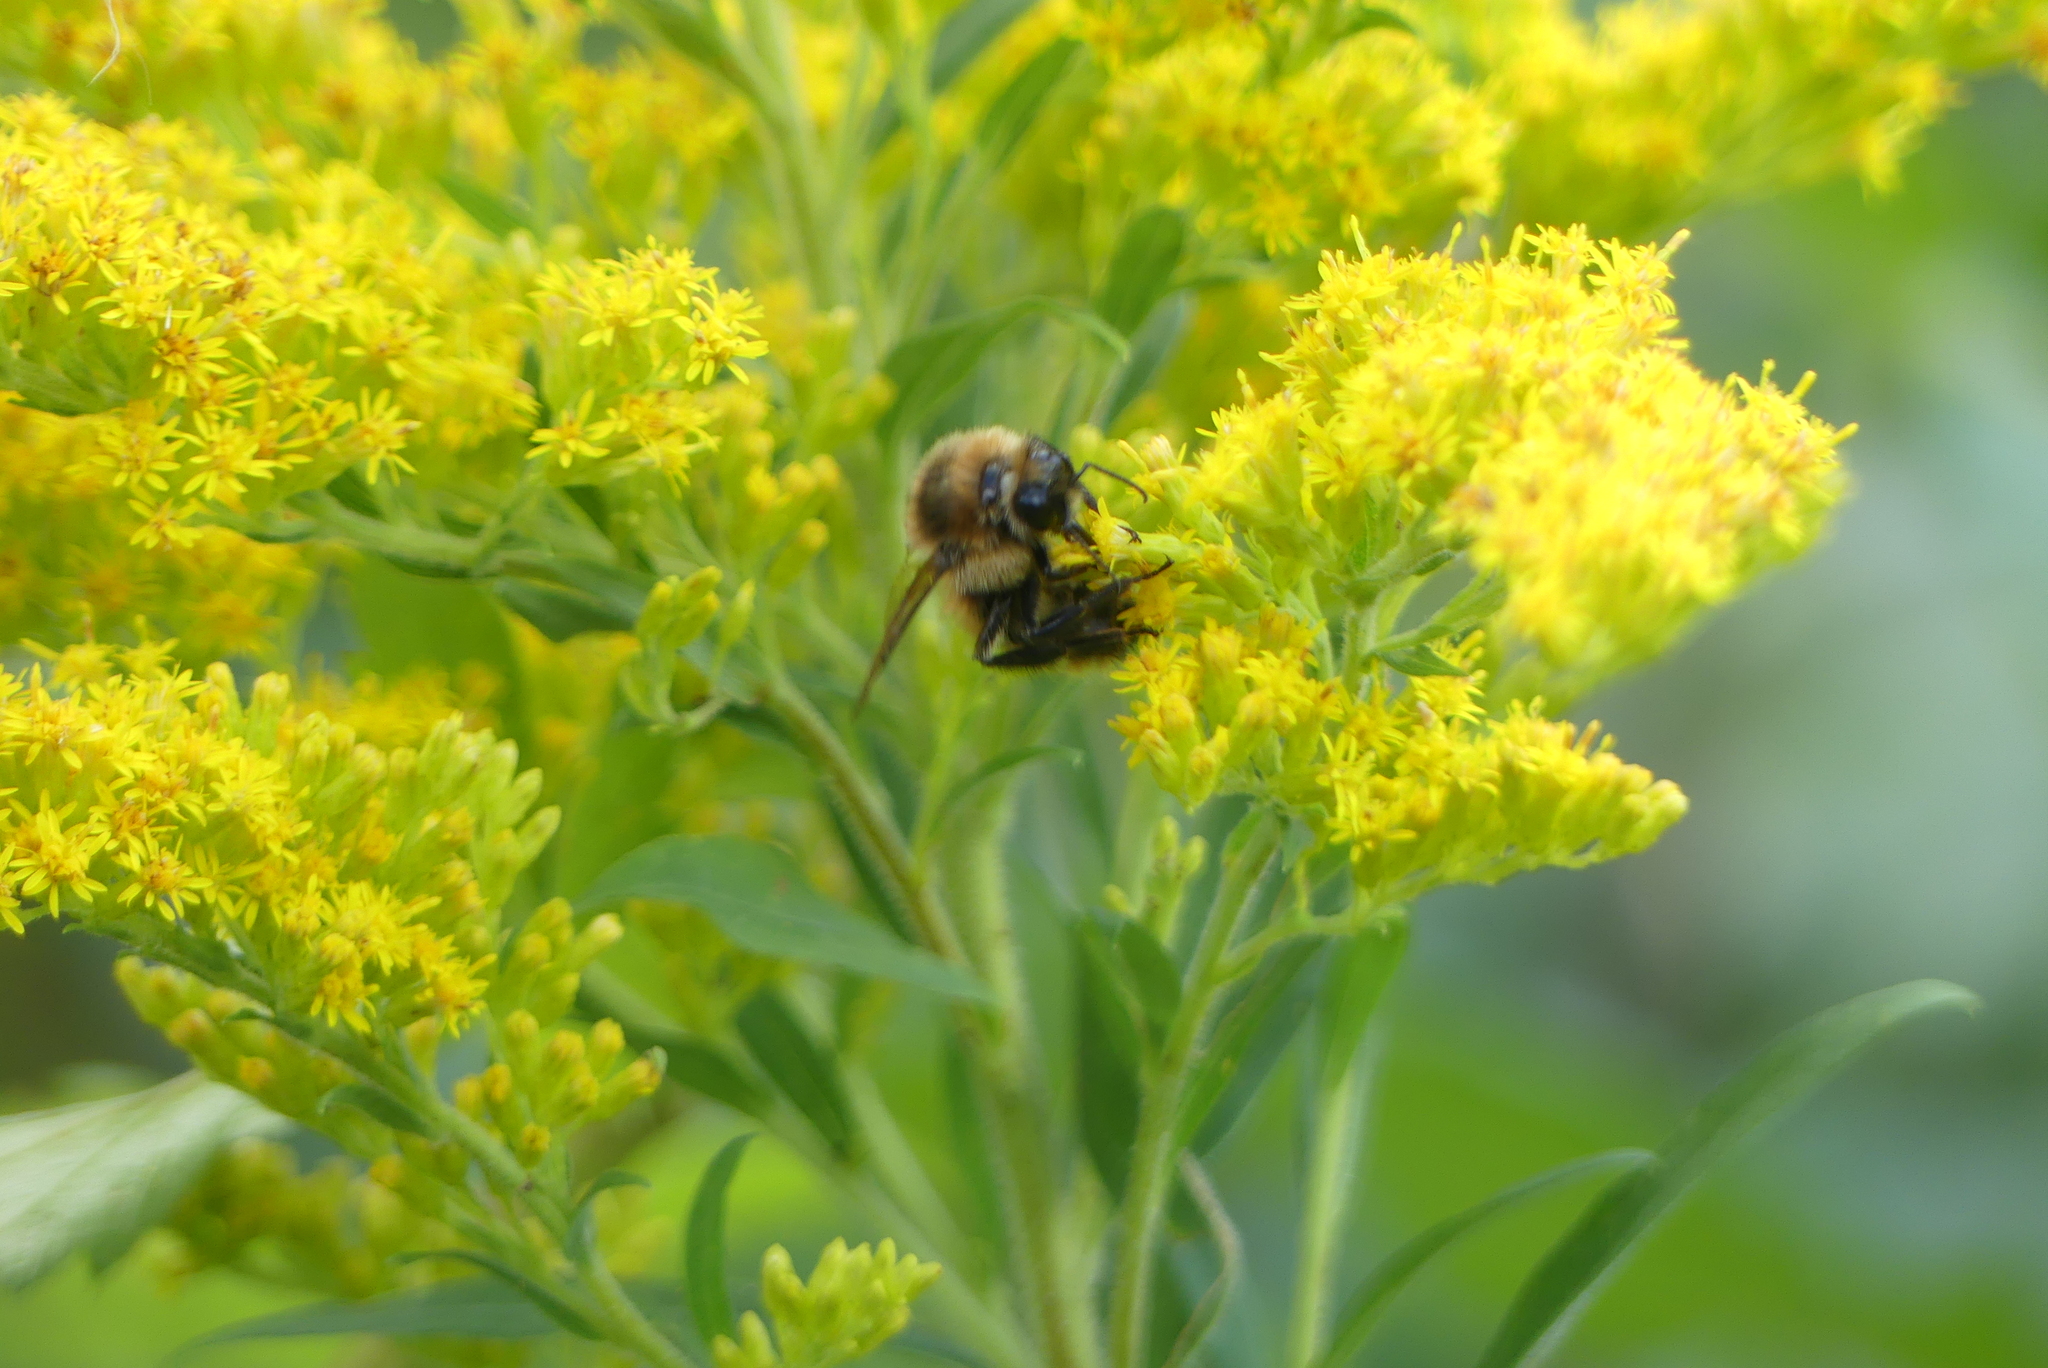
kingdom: Animalia
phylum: Arthropoda
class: Insecta
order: Hymenoptera
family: Apidae
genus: Bombus
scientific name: Bombus rufocinctus
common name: Red-belted bumble bee
